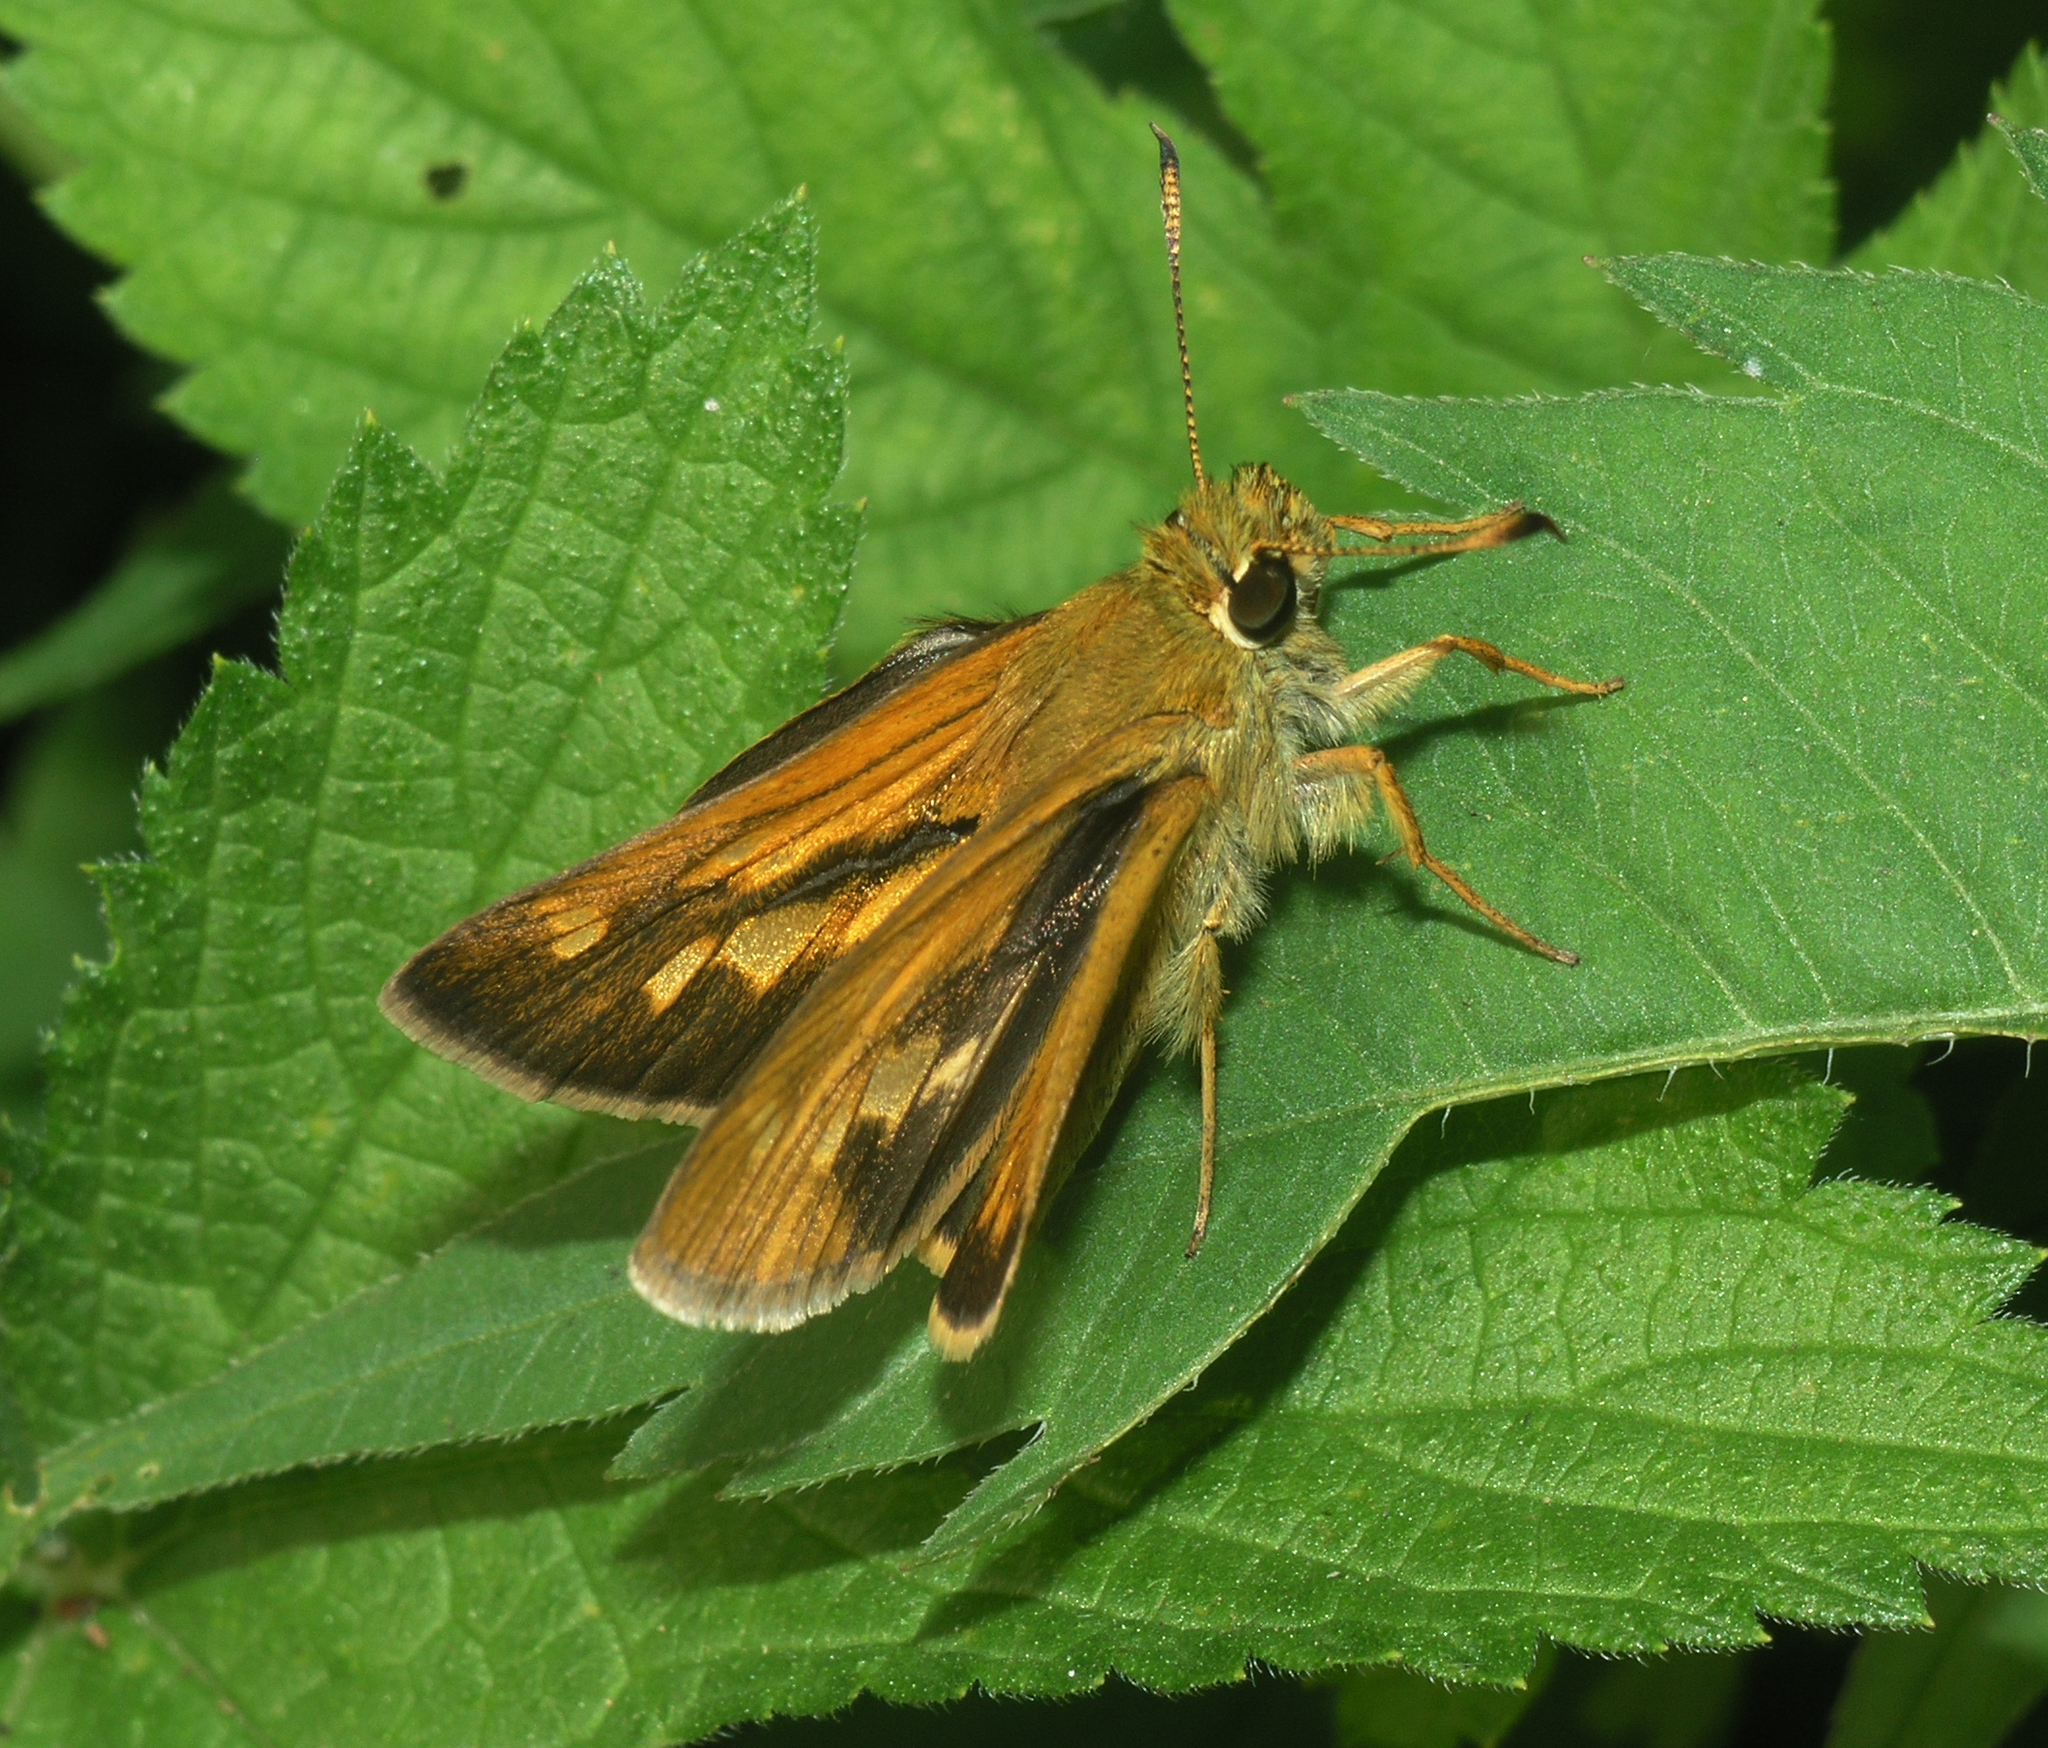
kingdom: Animalia
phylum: Arthropoda
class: Insecta
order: Lepidoptera
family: Hesperiidae
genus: Ochlodes
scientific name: Ochlodes subhyalina
